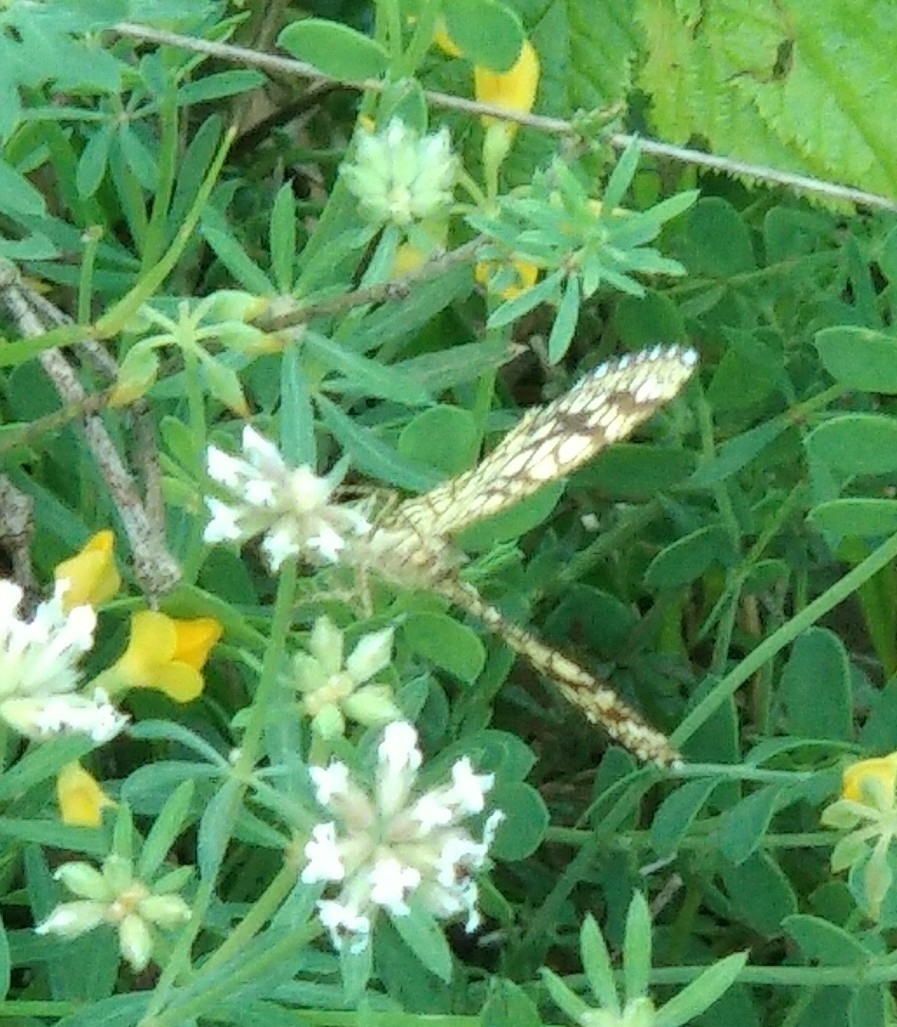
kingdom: Animalia
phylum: Arthropoda
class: Insecta
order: Lepidoptera
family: Geometridae
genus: Chiasmia
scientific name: Chiasmia clathrata
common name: Latticed heath
